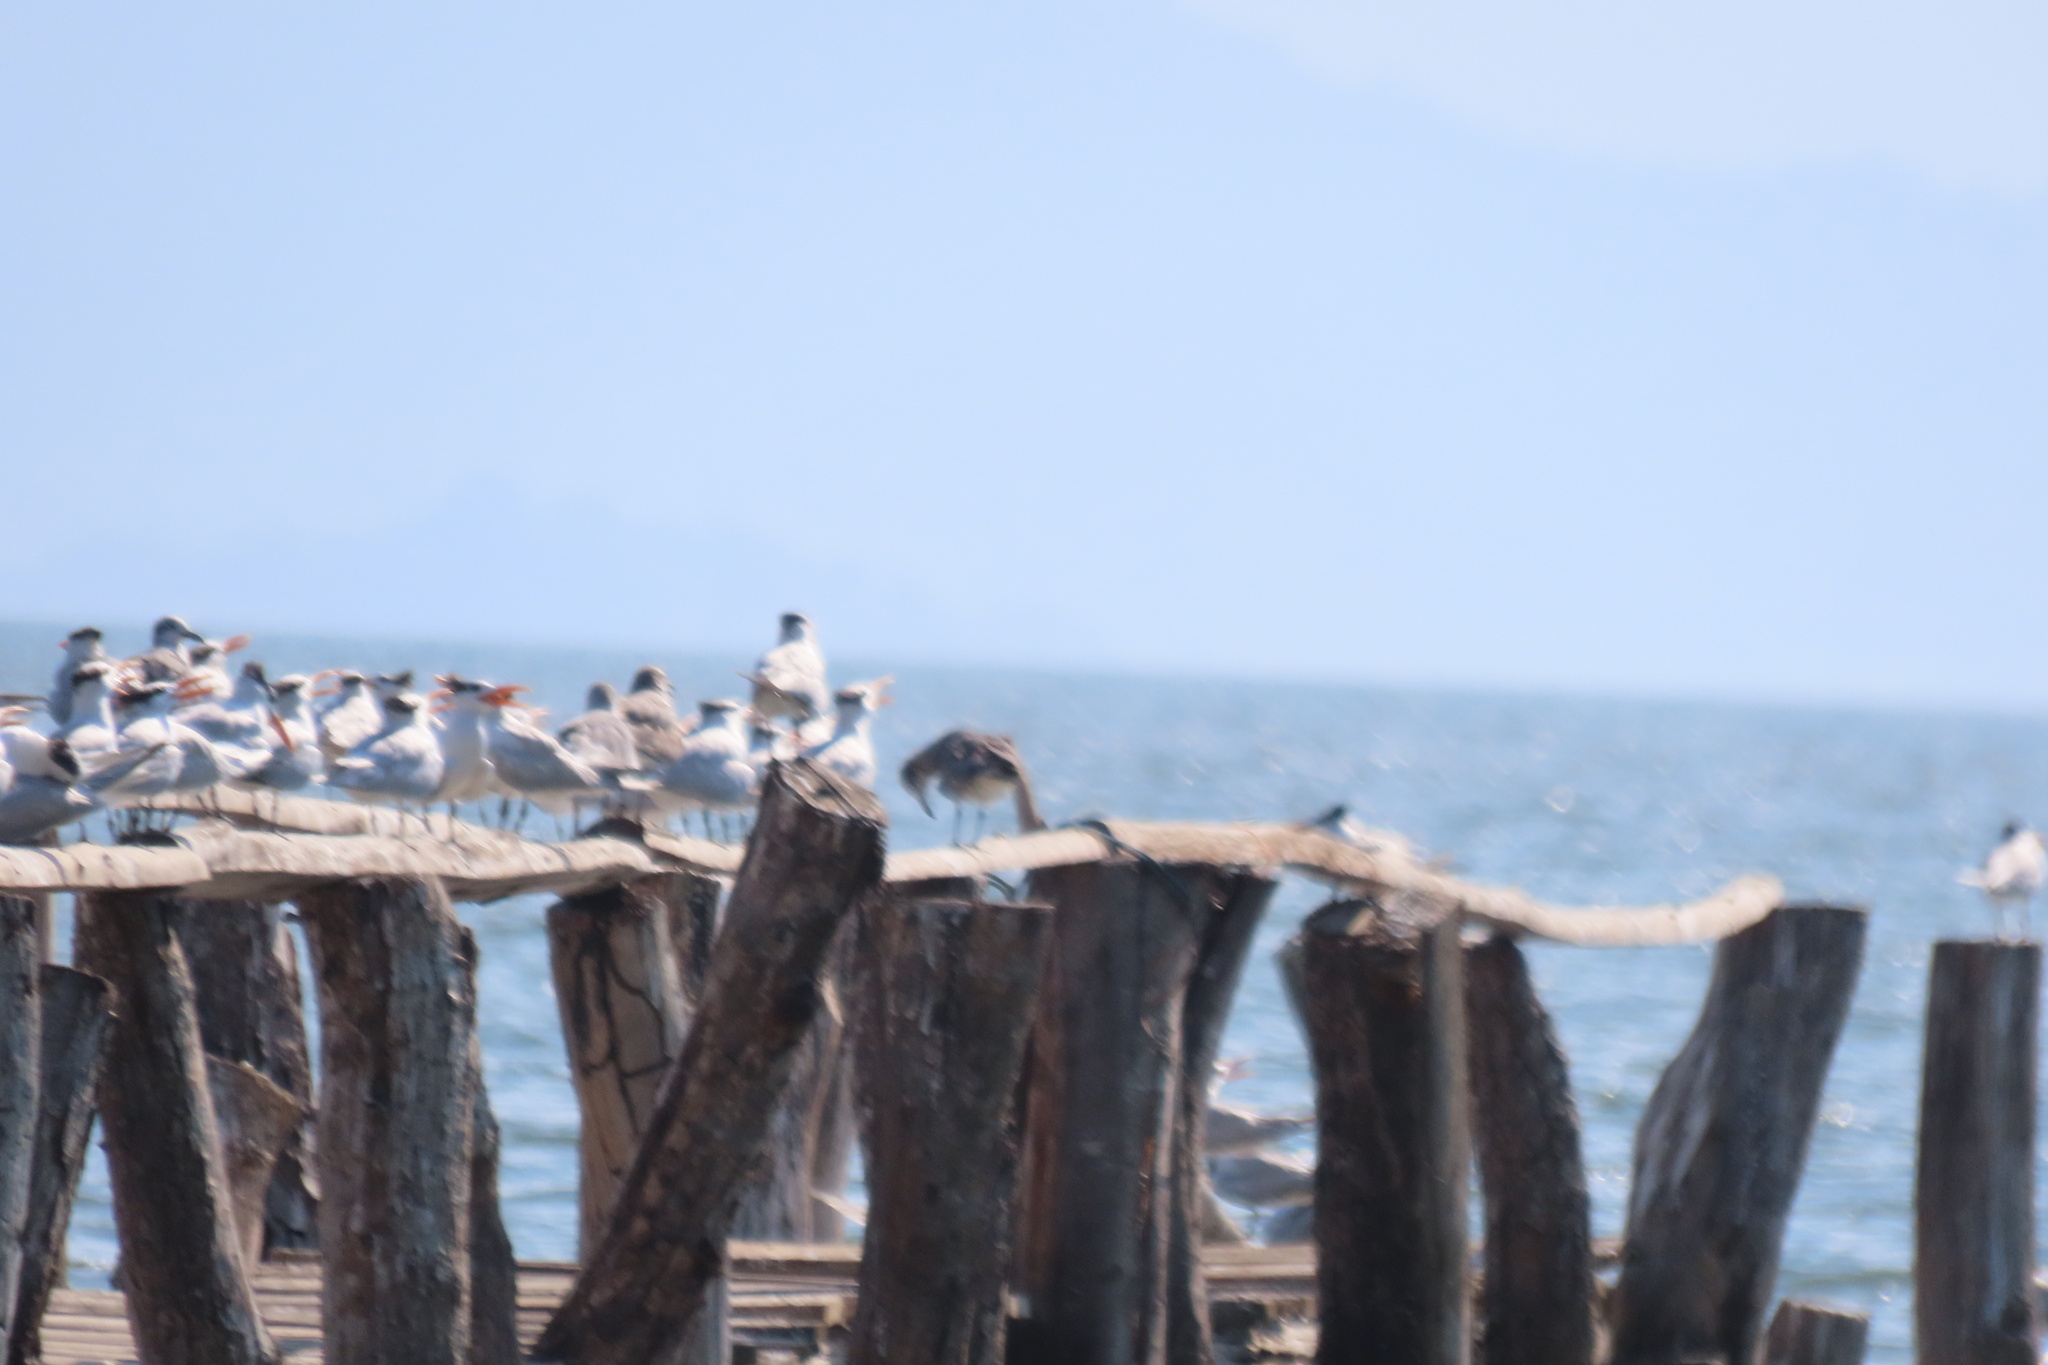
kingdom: Animalia
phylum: Chordata
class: Aves
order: Charadriiformes
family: Laridae
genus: Leucophaeus
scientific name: Leucophaeus atricilla
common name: Laughing gull
